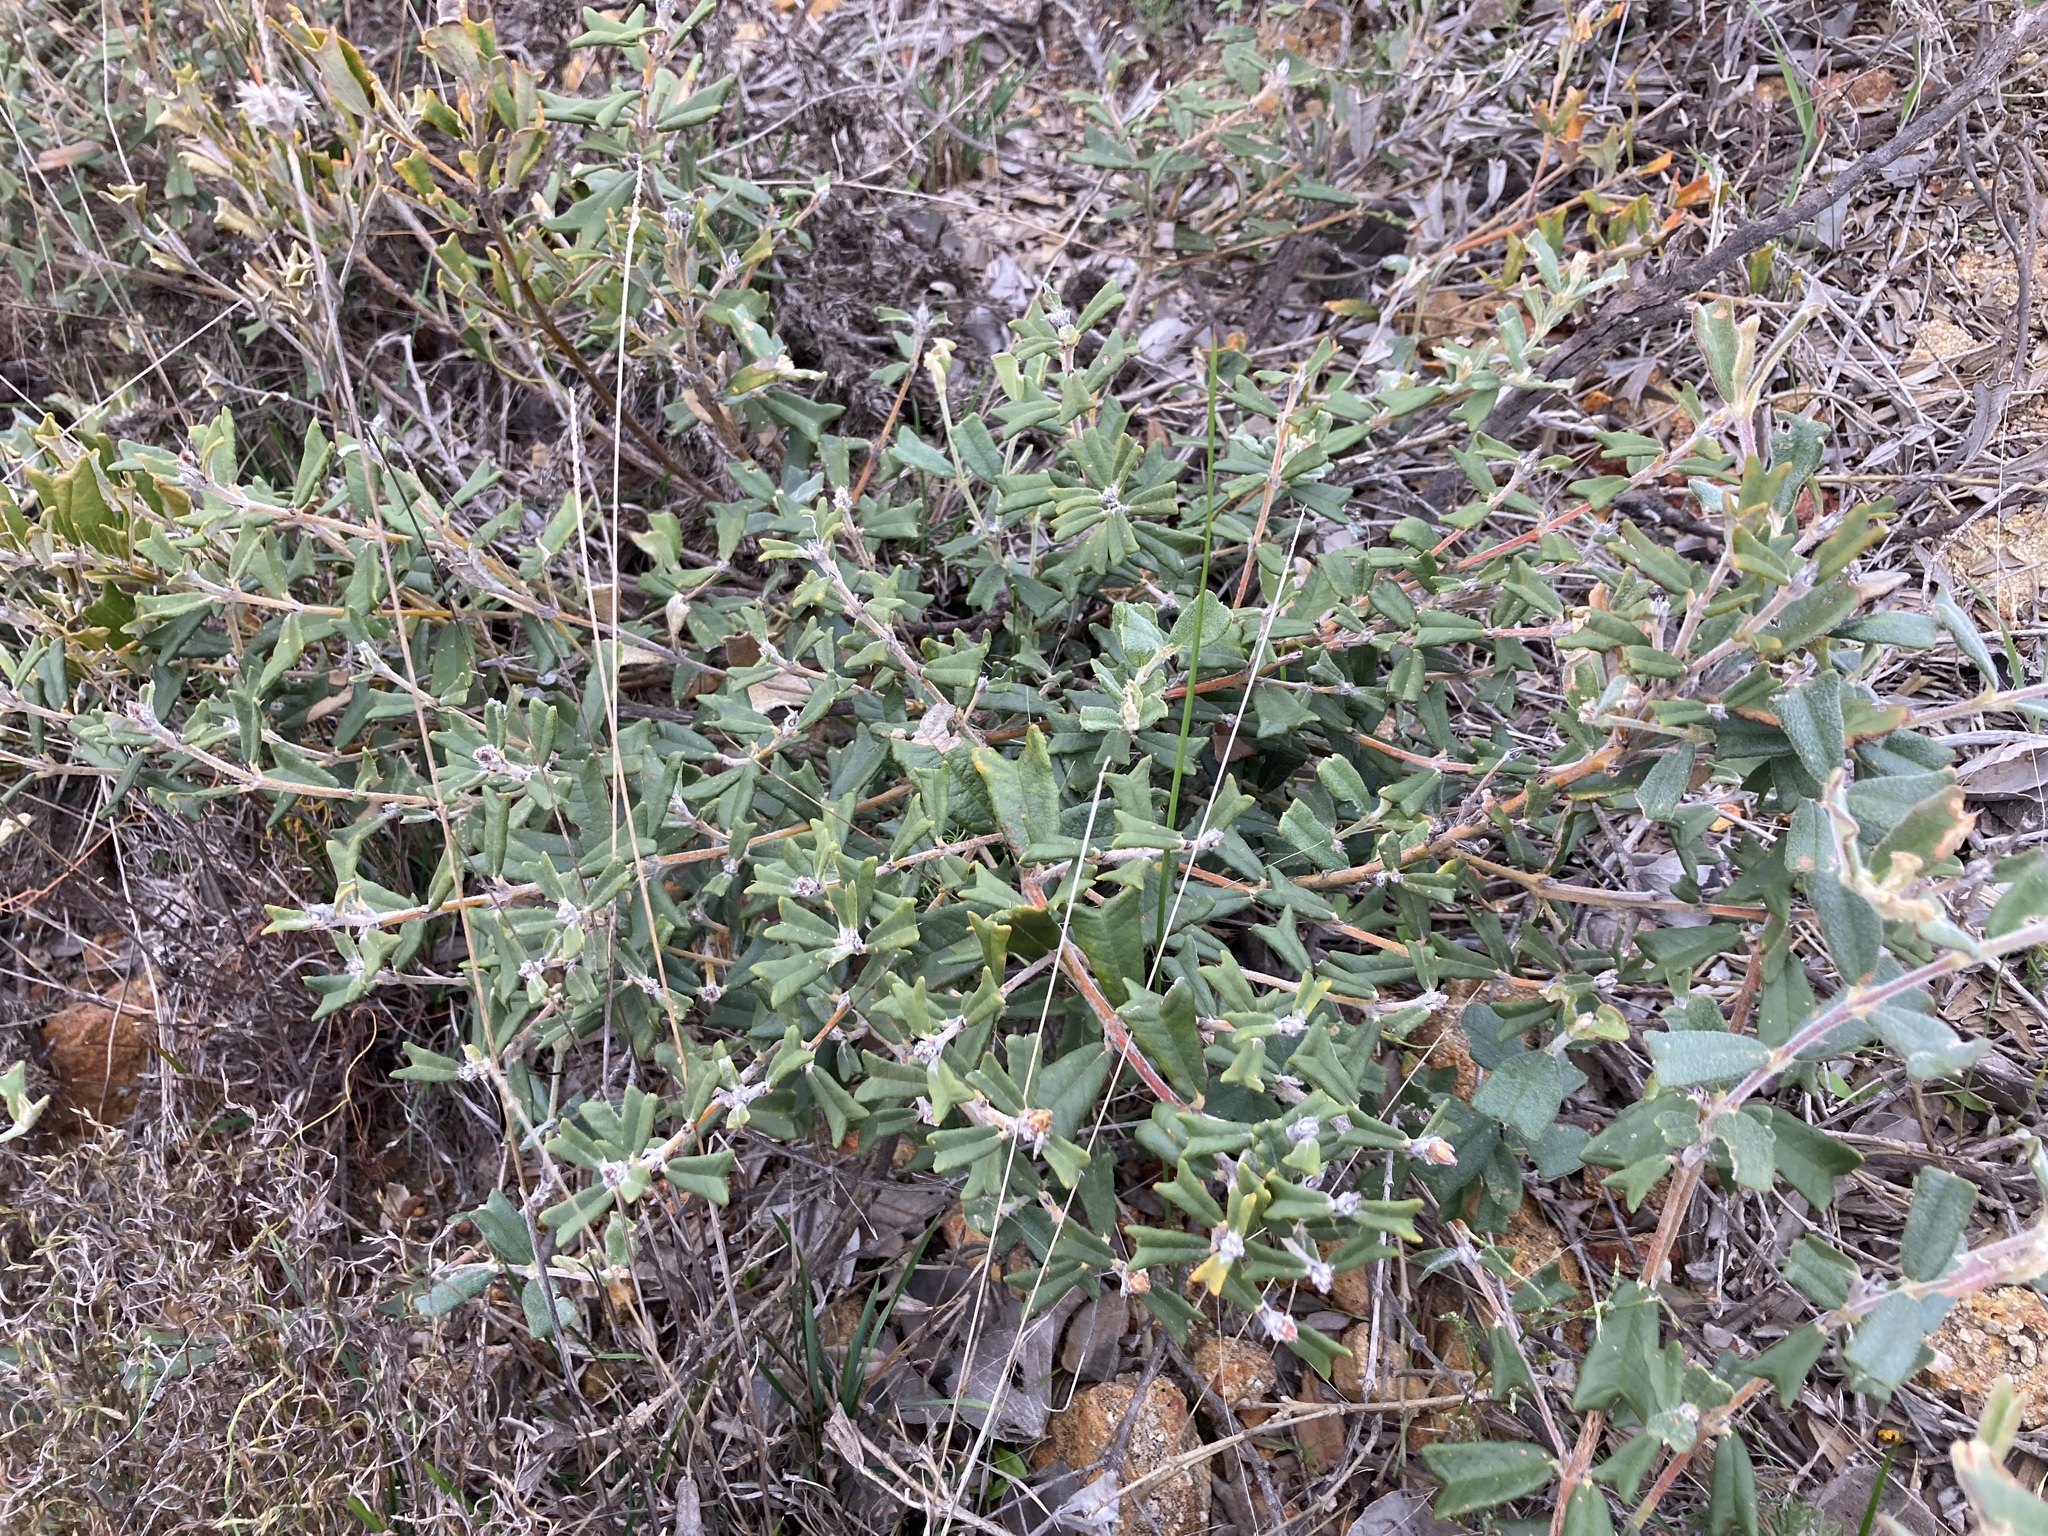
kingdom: Plantae
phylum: Tracheophyta
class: Magnoliopsida
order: Fabales
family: Fabaceae
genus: Gastrolobium
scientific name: Gastrolobium polystachyum
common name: Hill river poison
